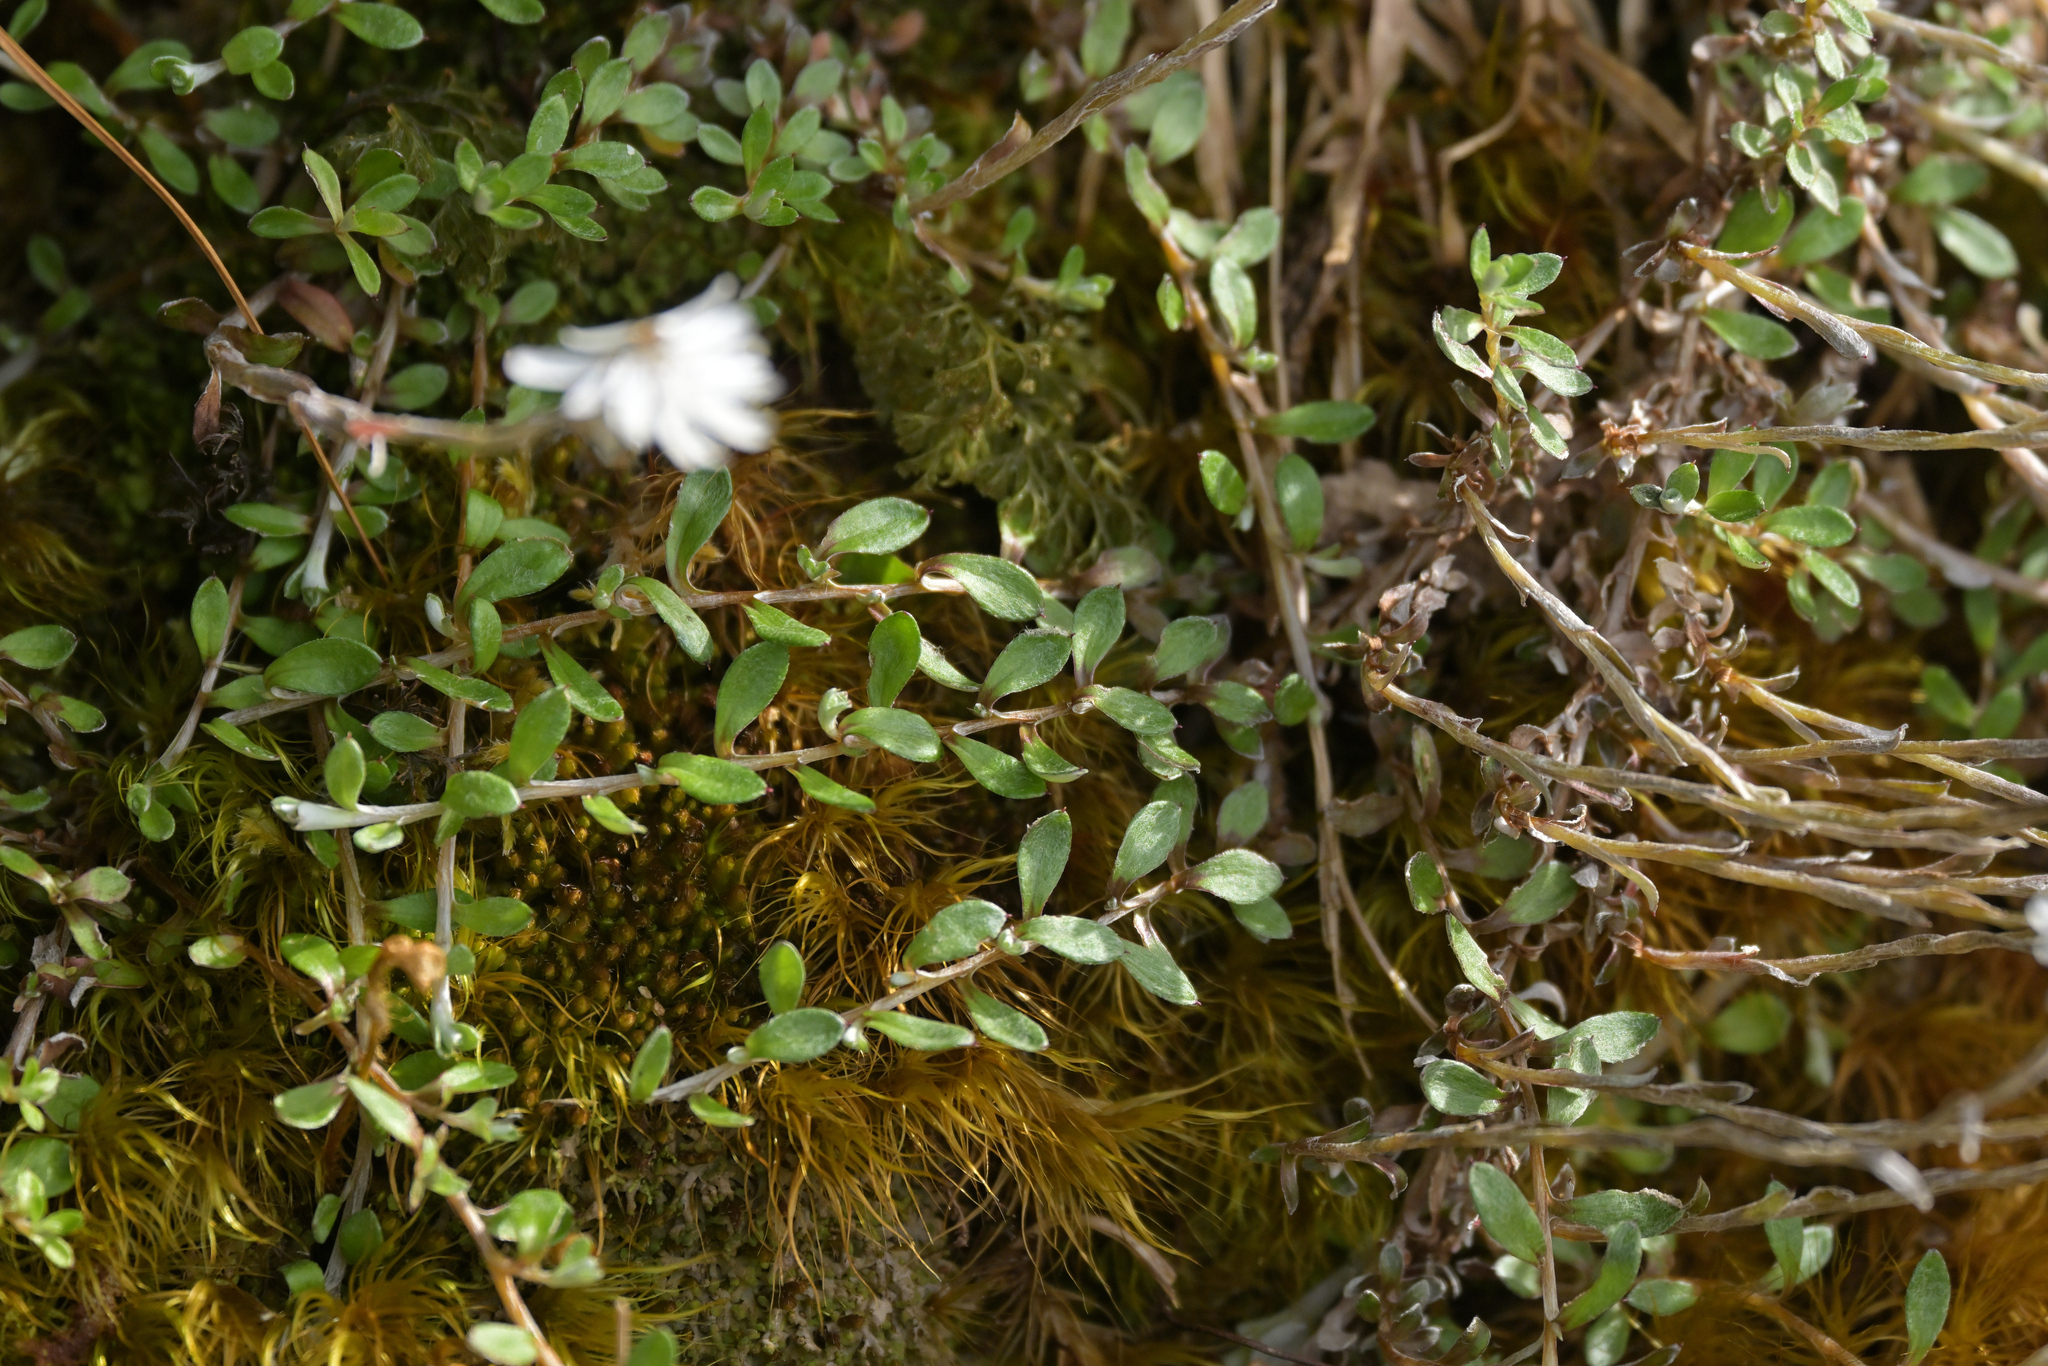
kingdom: Plantae
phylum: Tracheophyta
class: Magnoliopsida
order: Asterales
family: Asteraceae
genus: Anaphalioides
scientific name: Anaphalioides bellidioides
